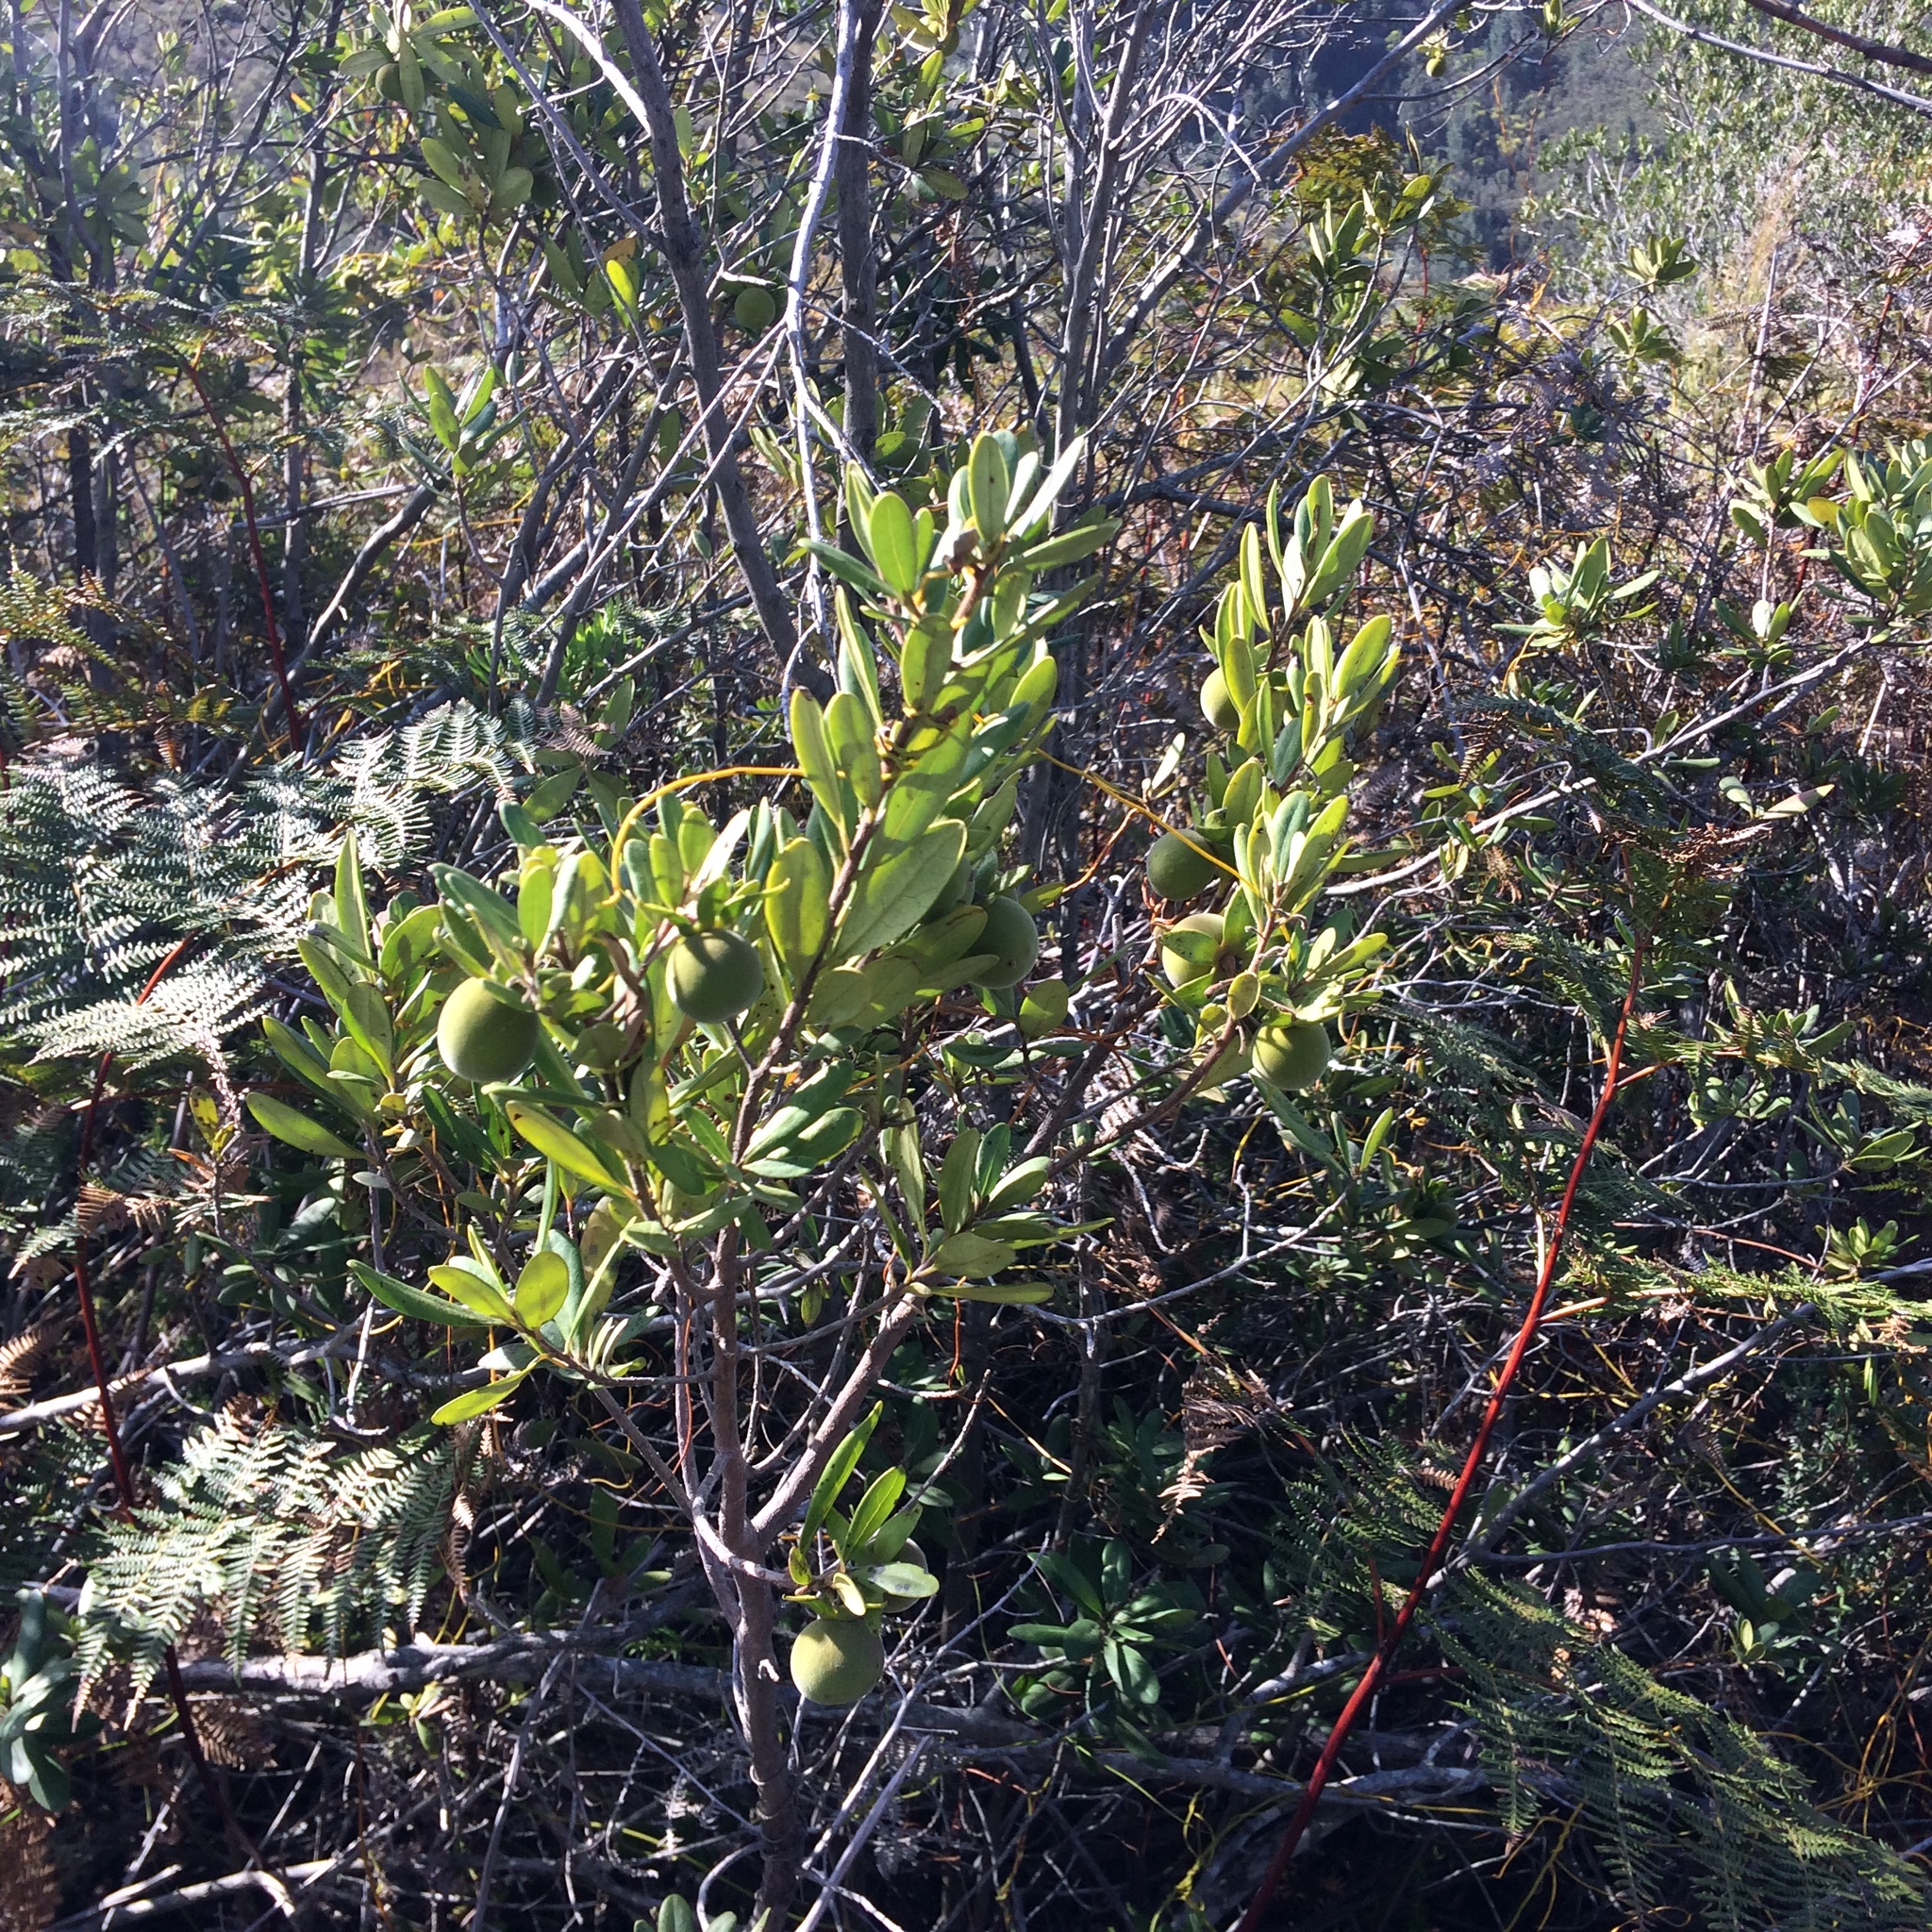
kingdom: Plantae
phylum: Tracheophyta
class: Magnoliopsida
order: Ericales
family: Ebenaceae
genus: Diospyros
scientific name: Diospyros dichrophylla
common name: Common star-apple
